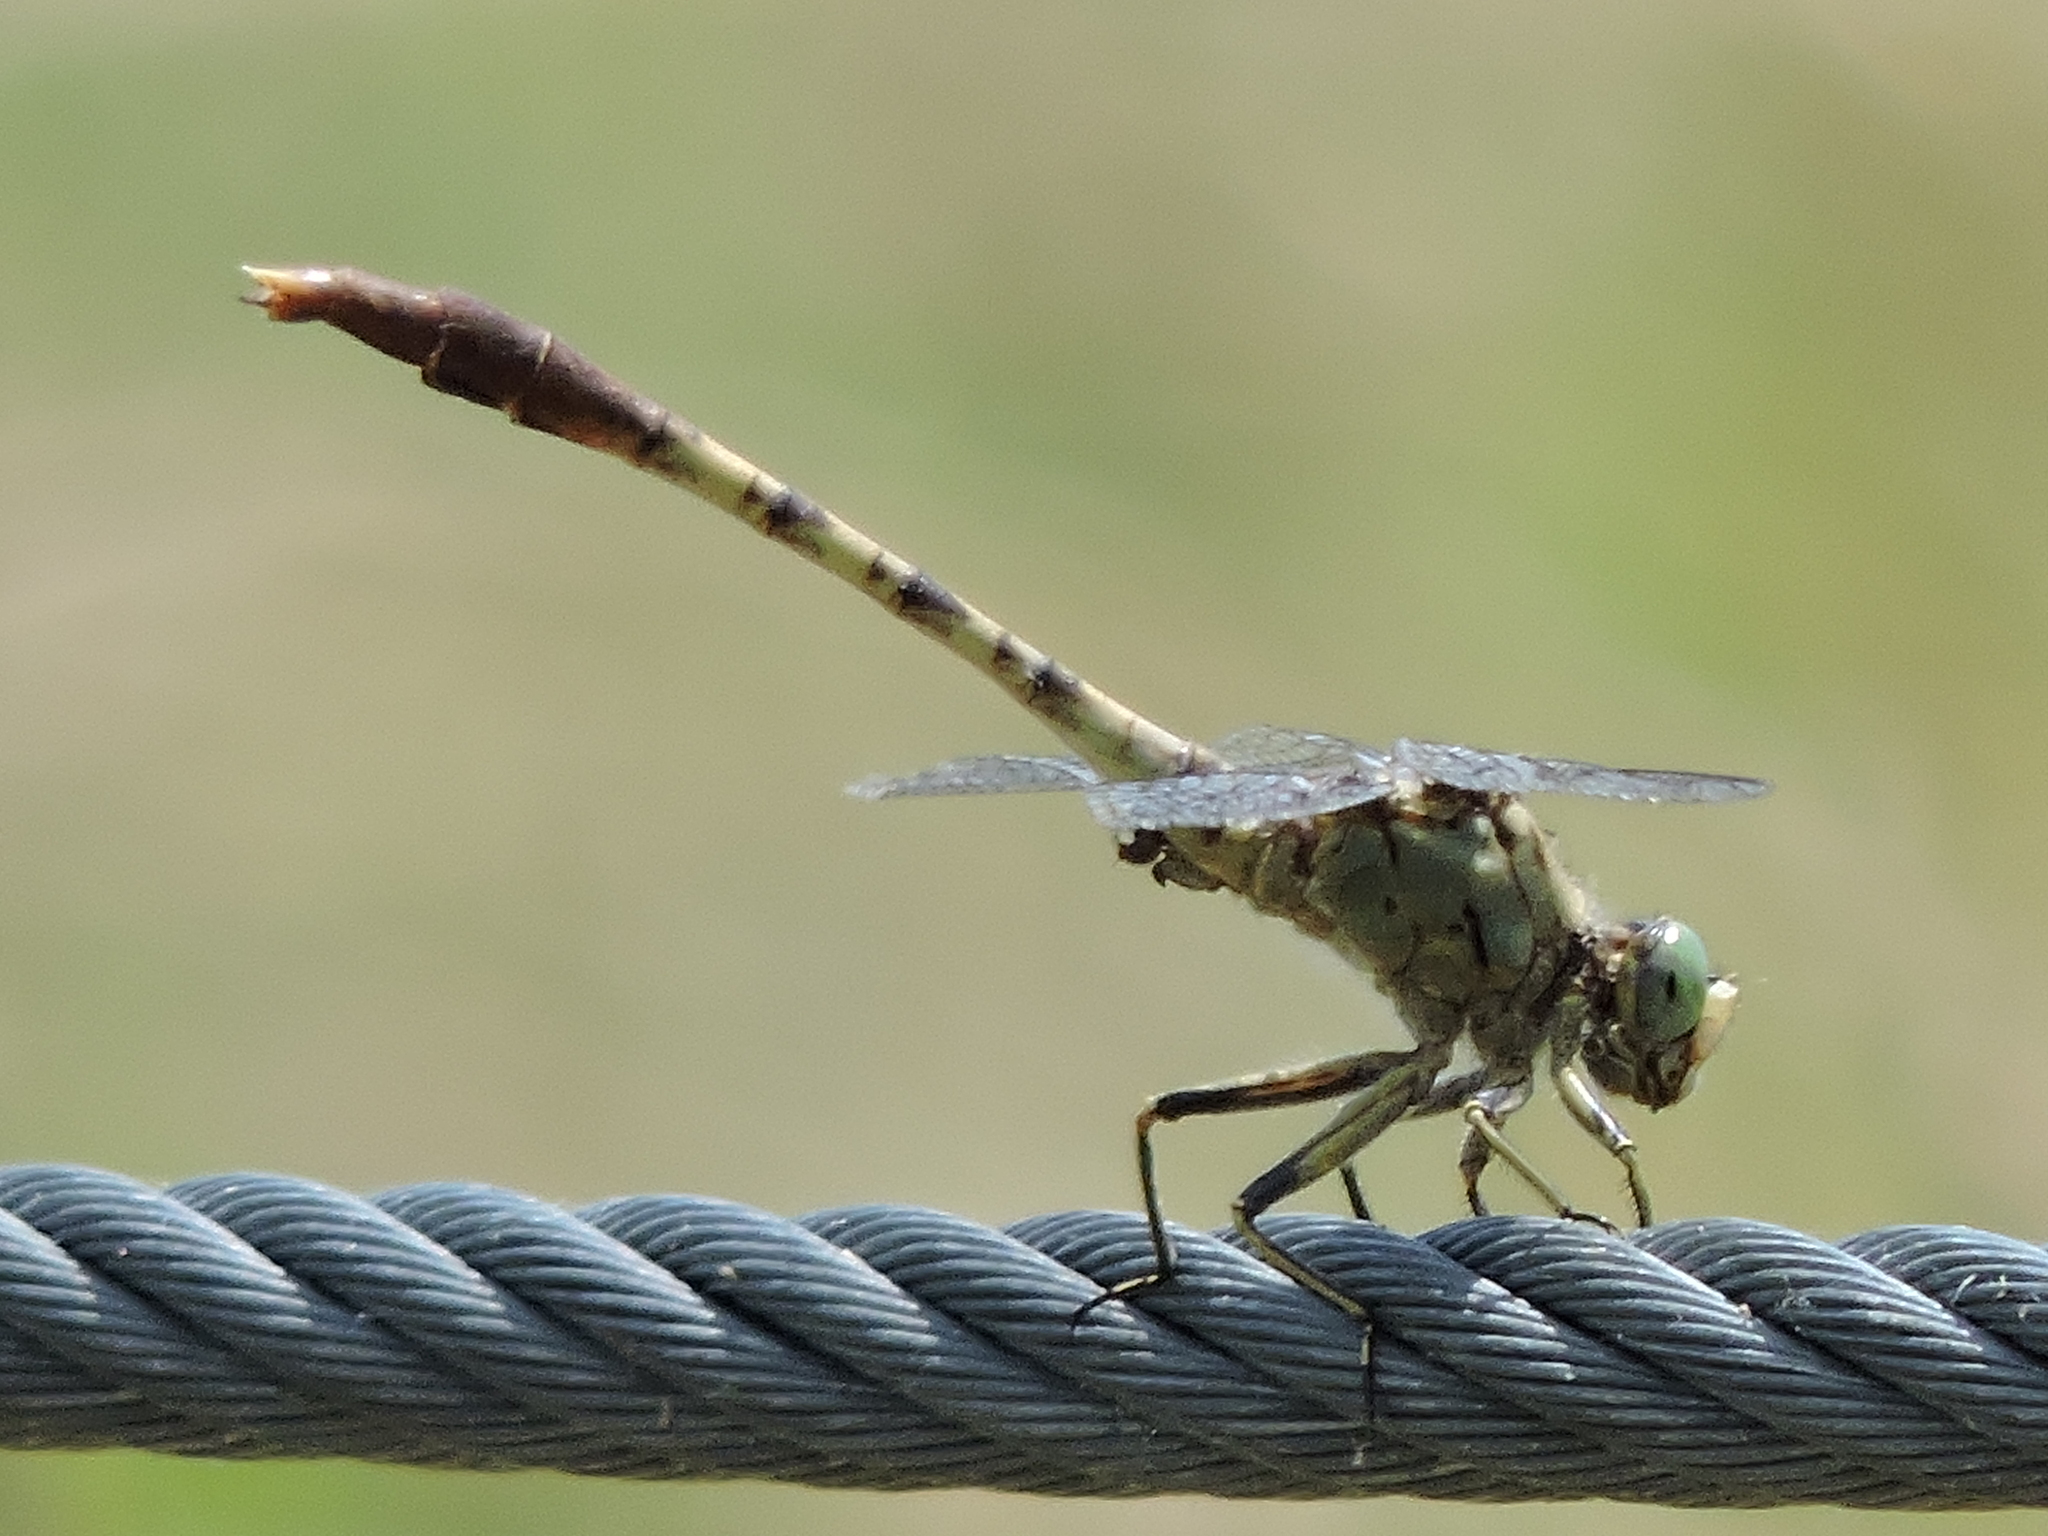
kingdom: Animalia
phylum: Arthropoda
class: Insecta
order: Odonata
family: Gomphidae
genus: Arigomphus
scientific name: Arigomphus submedianus
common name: Jade clubtail
